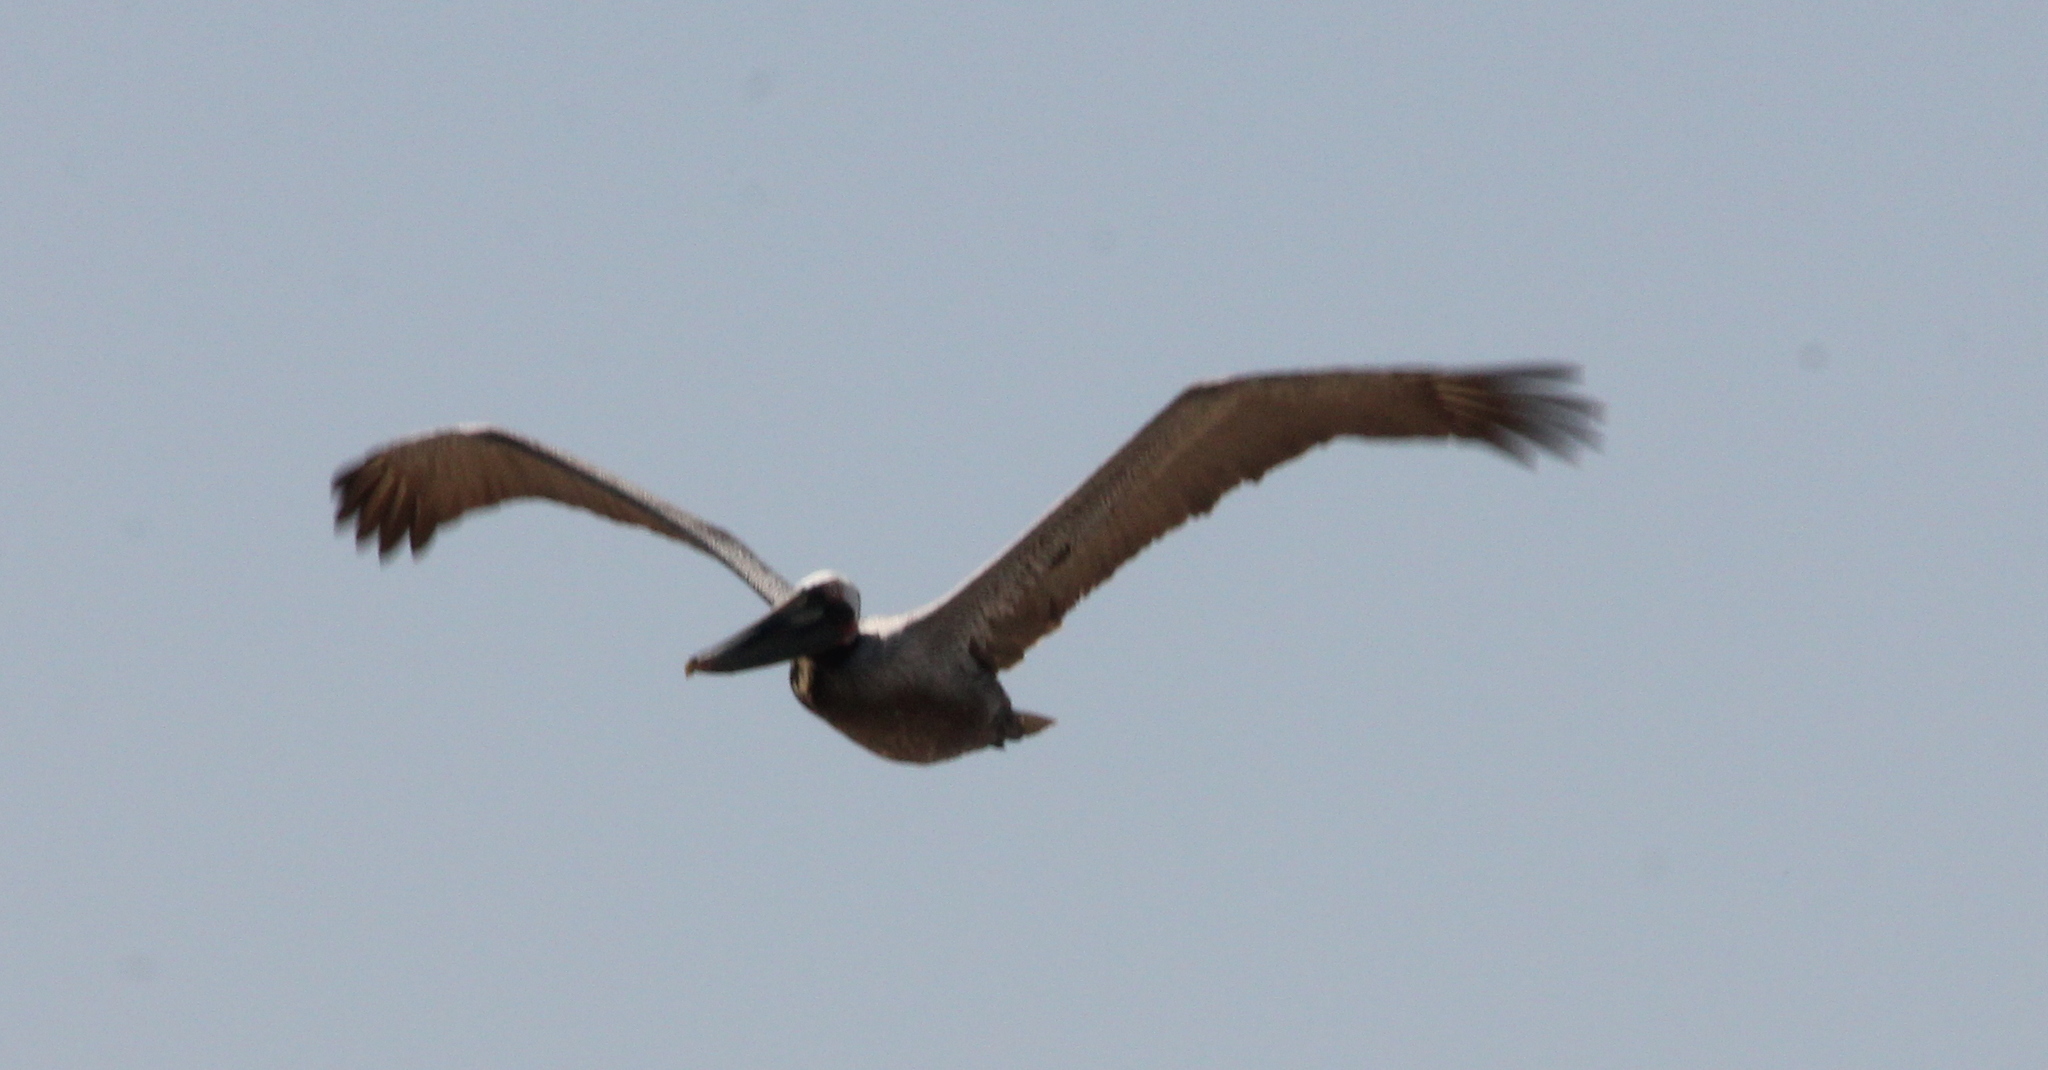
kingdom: Animalia
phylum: Chordata
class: Aves
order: Pelecaniformes
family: Pelecanidae
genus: Pelecanus
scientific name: Pelecanus occidentalis
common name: Brown pelican
